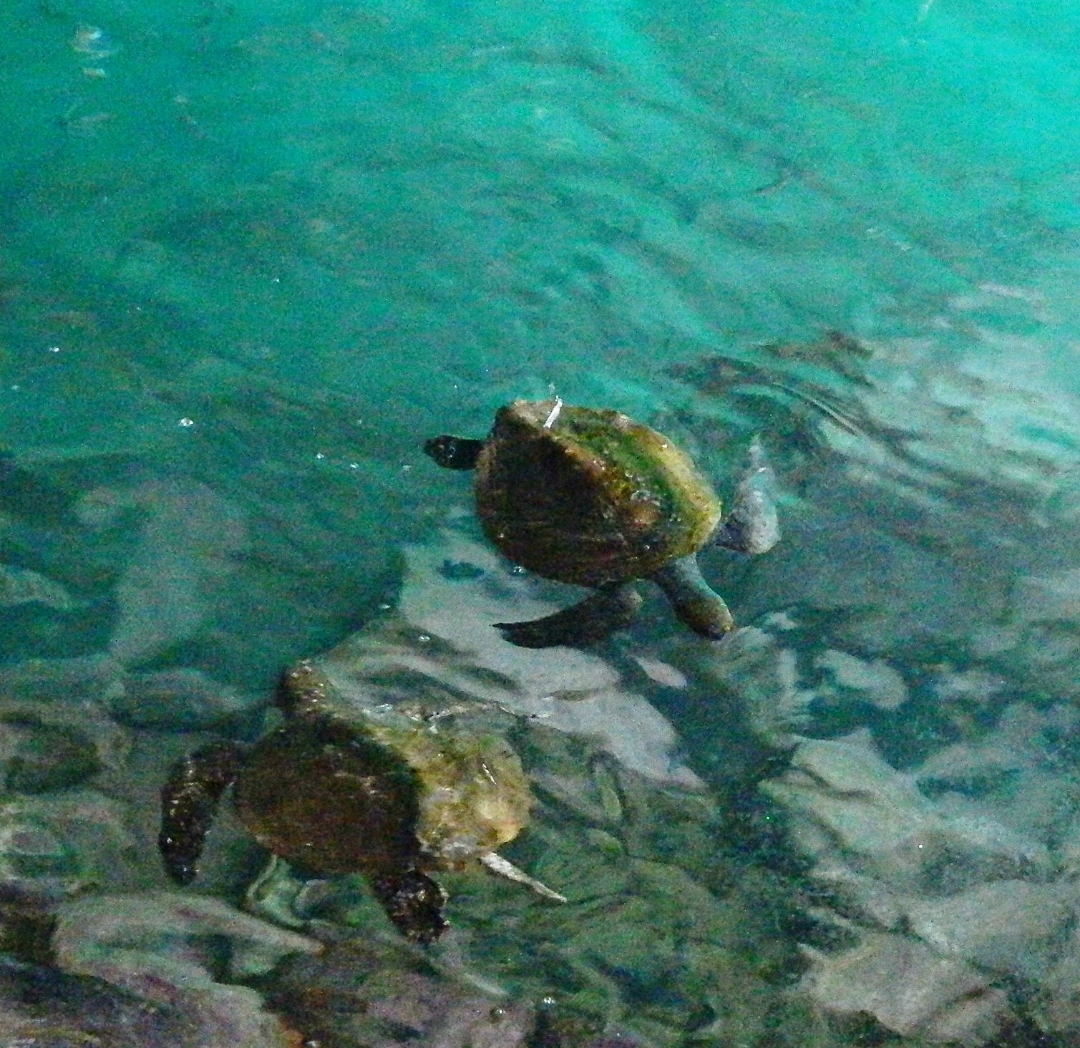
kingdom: Animalia
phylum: Chordata
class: Testudines
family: Cheloniidae
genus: Chelonia
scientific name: Chelonia mydas
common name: Green turtle
